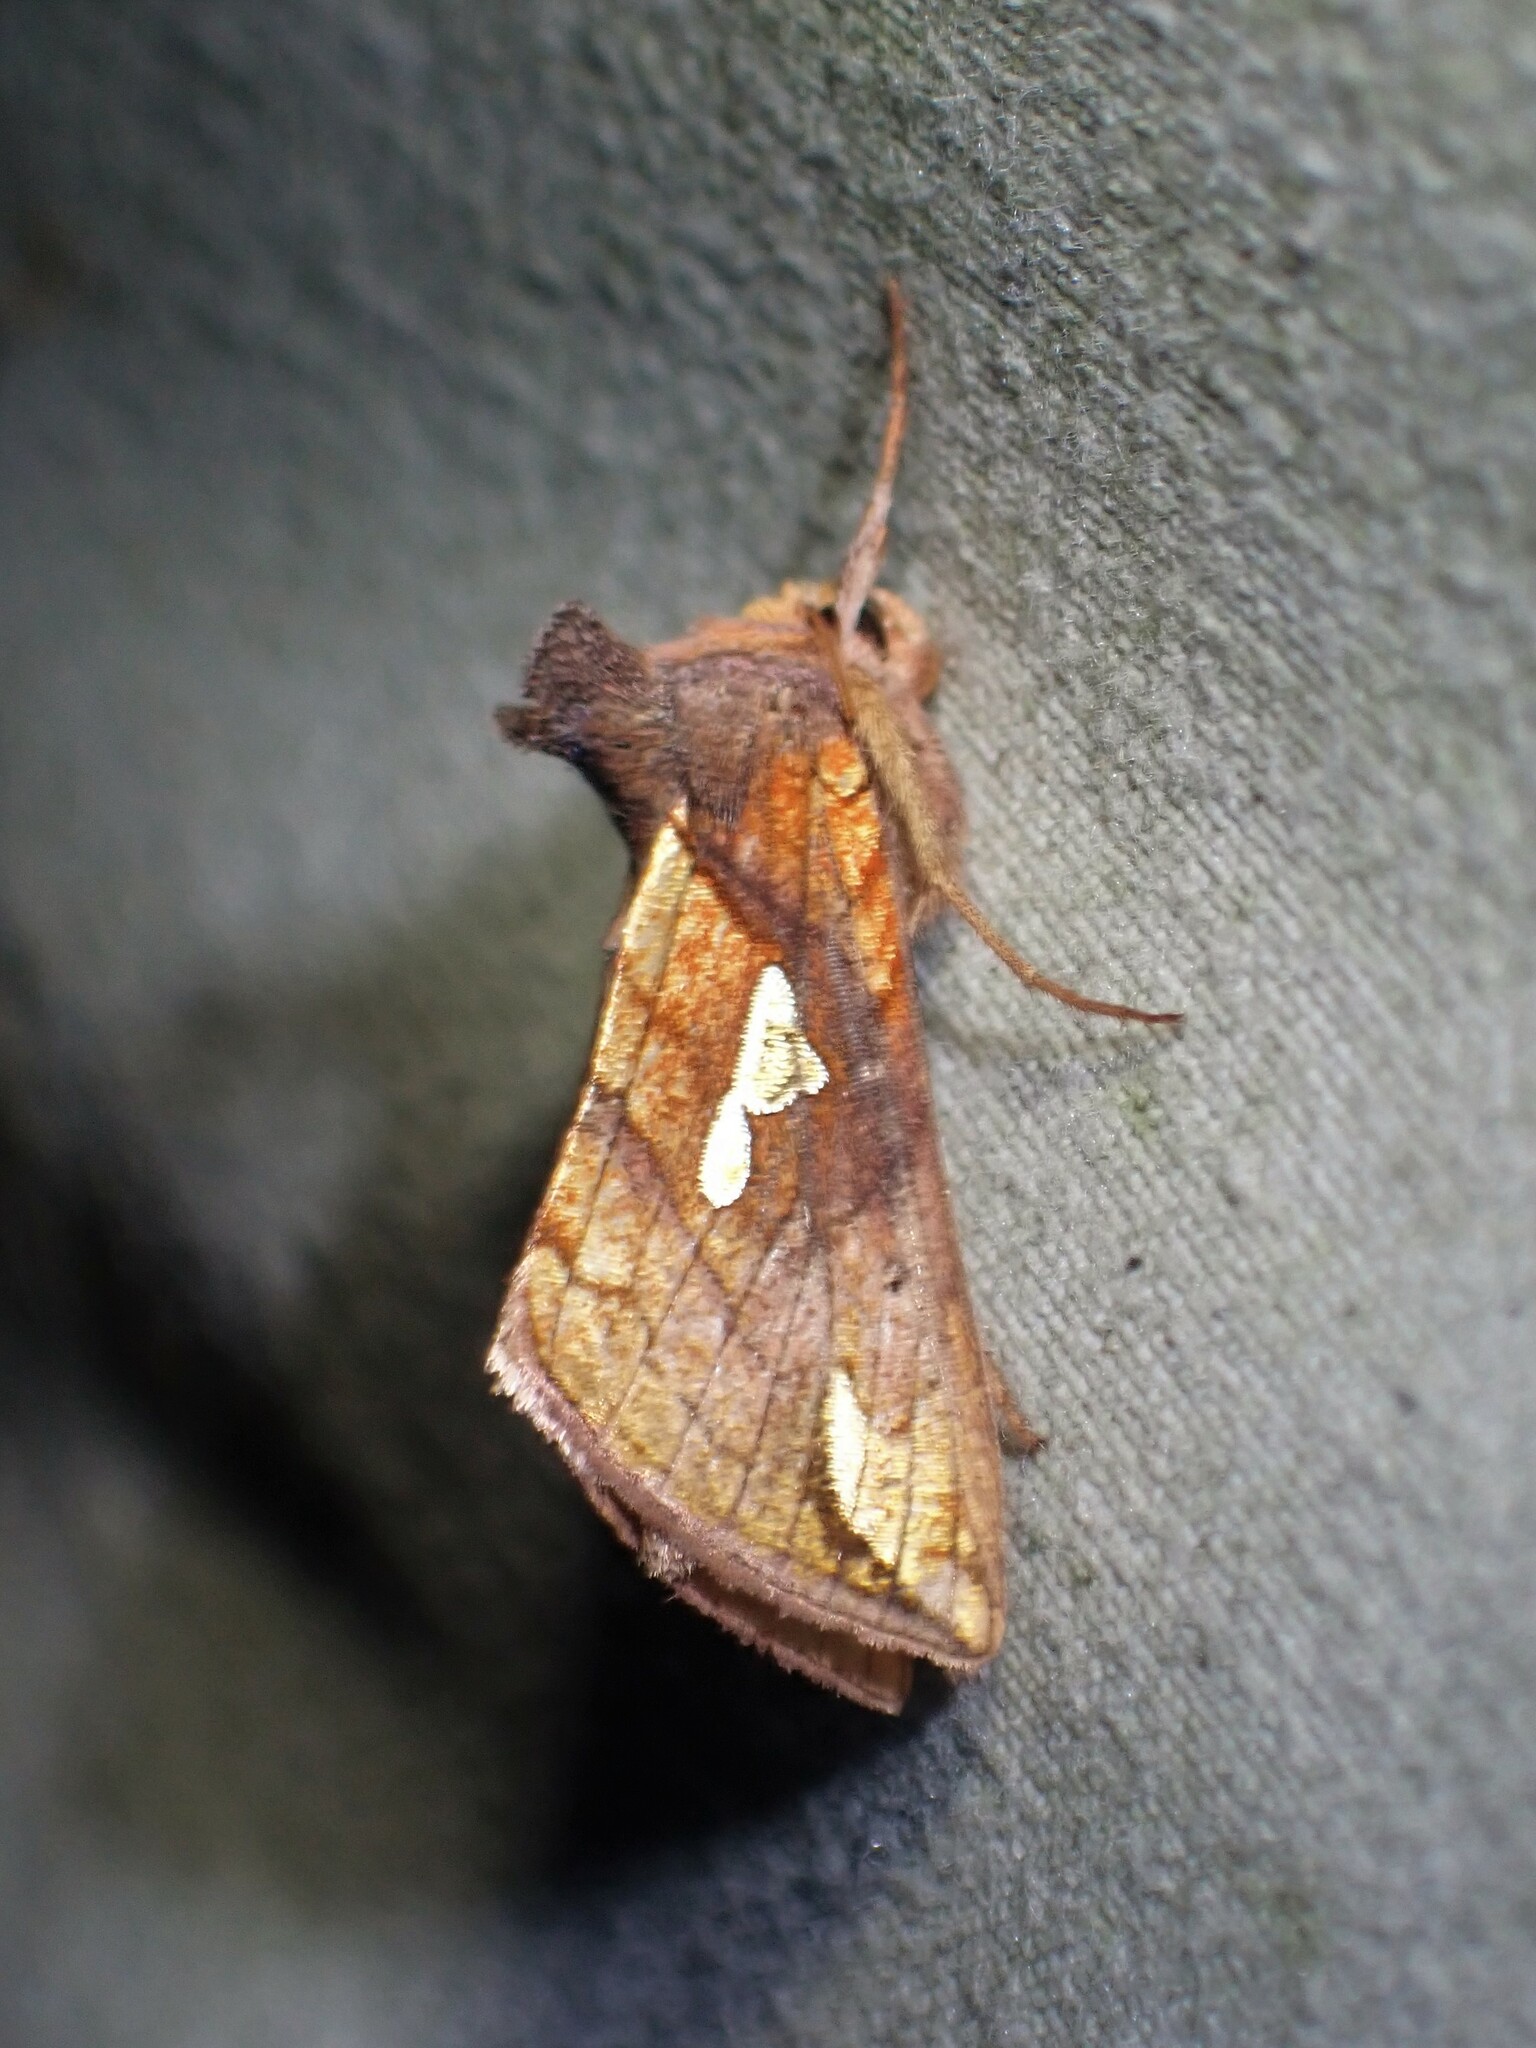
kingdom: Animalia
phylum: Arthropoda
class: Insecta
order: Lepidoptera
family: Noctuidae
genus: Plusia
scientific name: Plusia putnami
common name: Lempke's gold spot
